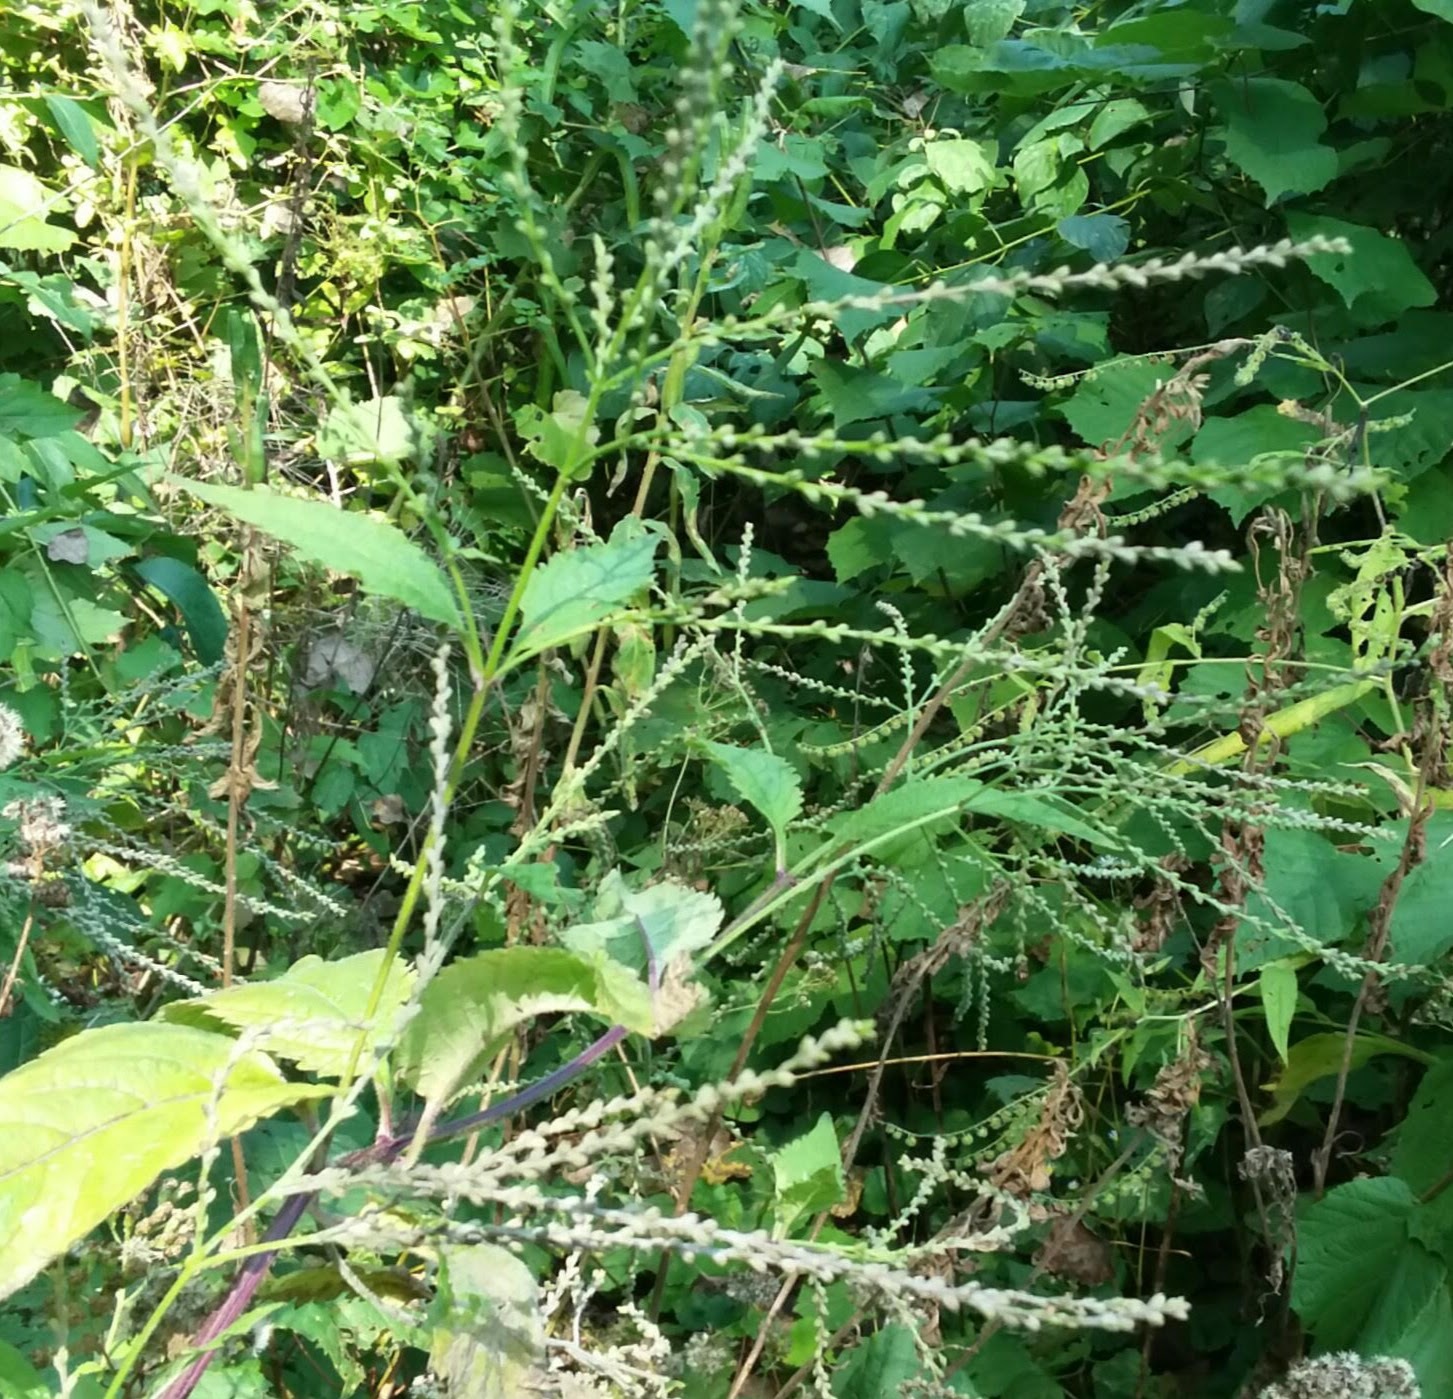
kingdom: Plantae
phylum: Tracheophyta
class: Magnoliopsida
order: Lamiales
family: Verbenaceae
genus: Verbena
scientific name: Verbena urticifolia
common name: Nettle-leaved vervain
